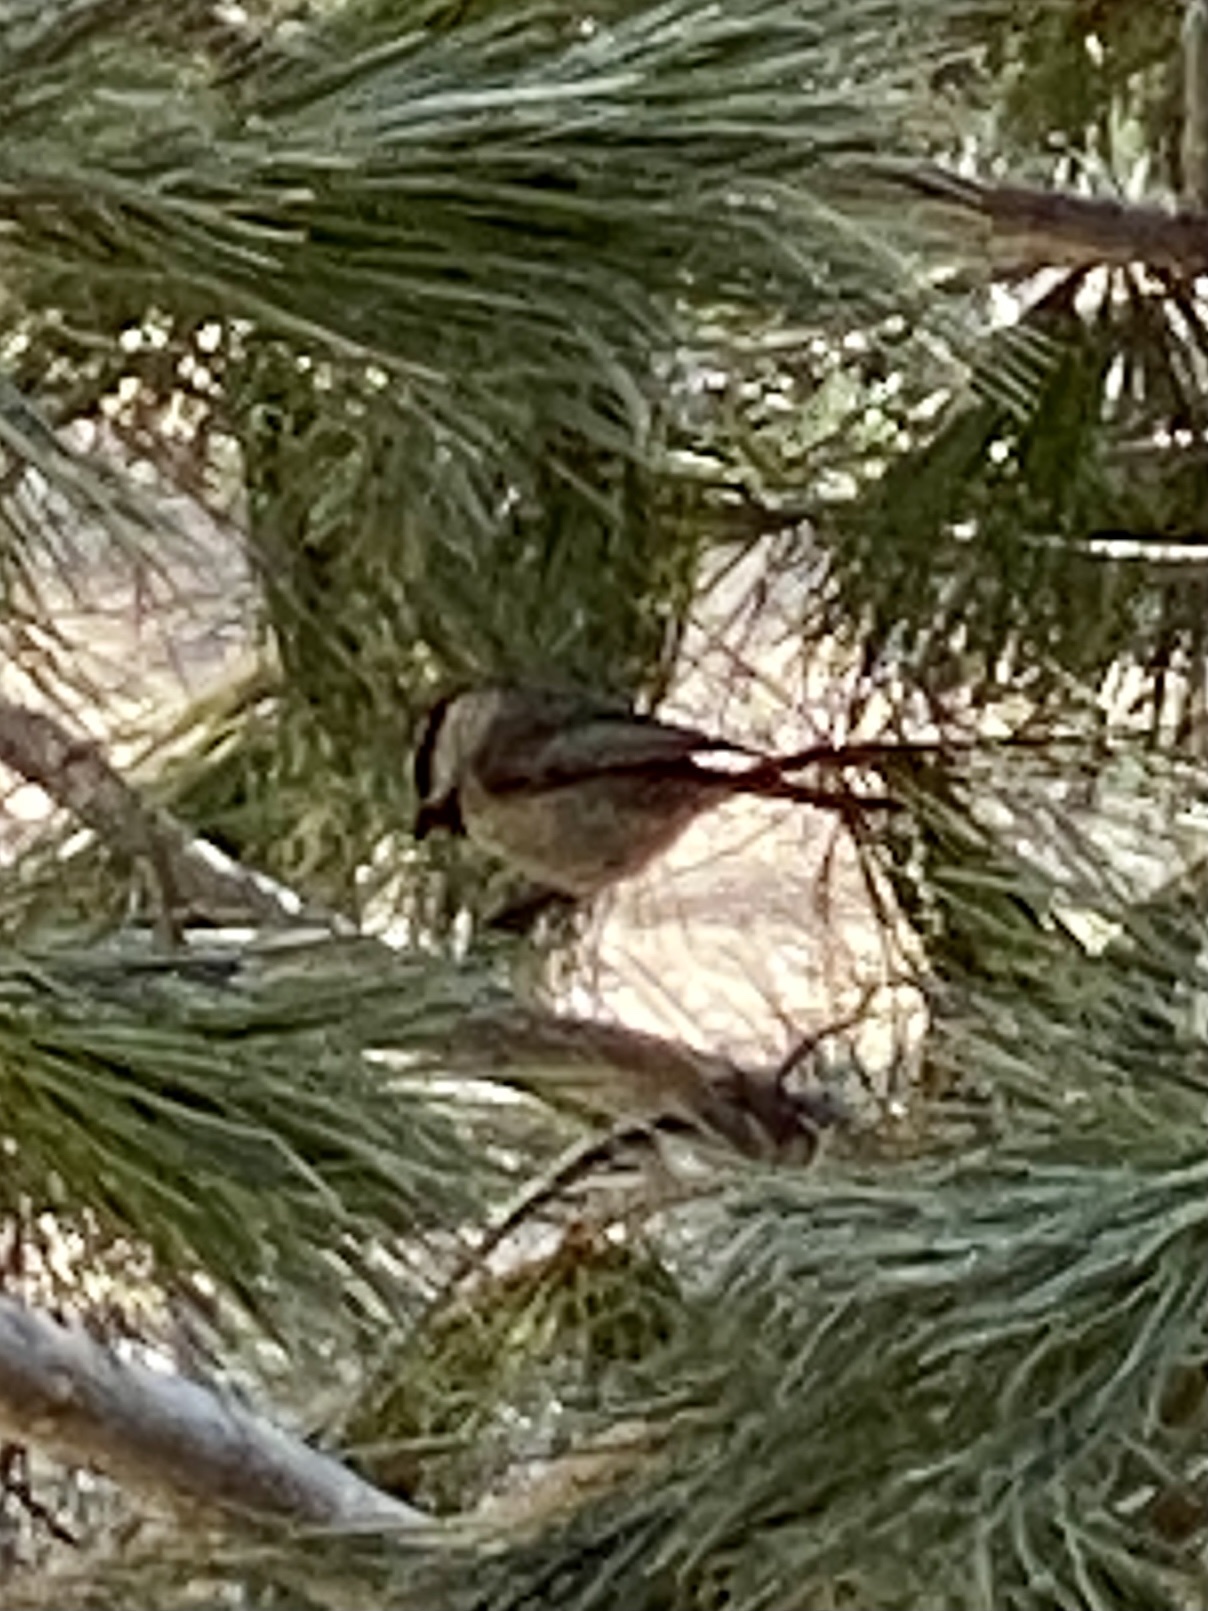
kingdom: Animalia
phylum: Chordata
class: Aves
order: Passeriformes
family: Paridae
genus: Poecile
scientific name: Poecile gambeli
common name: Mountain chickadee
